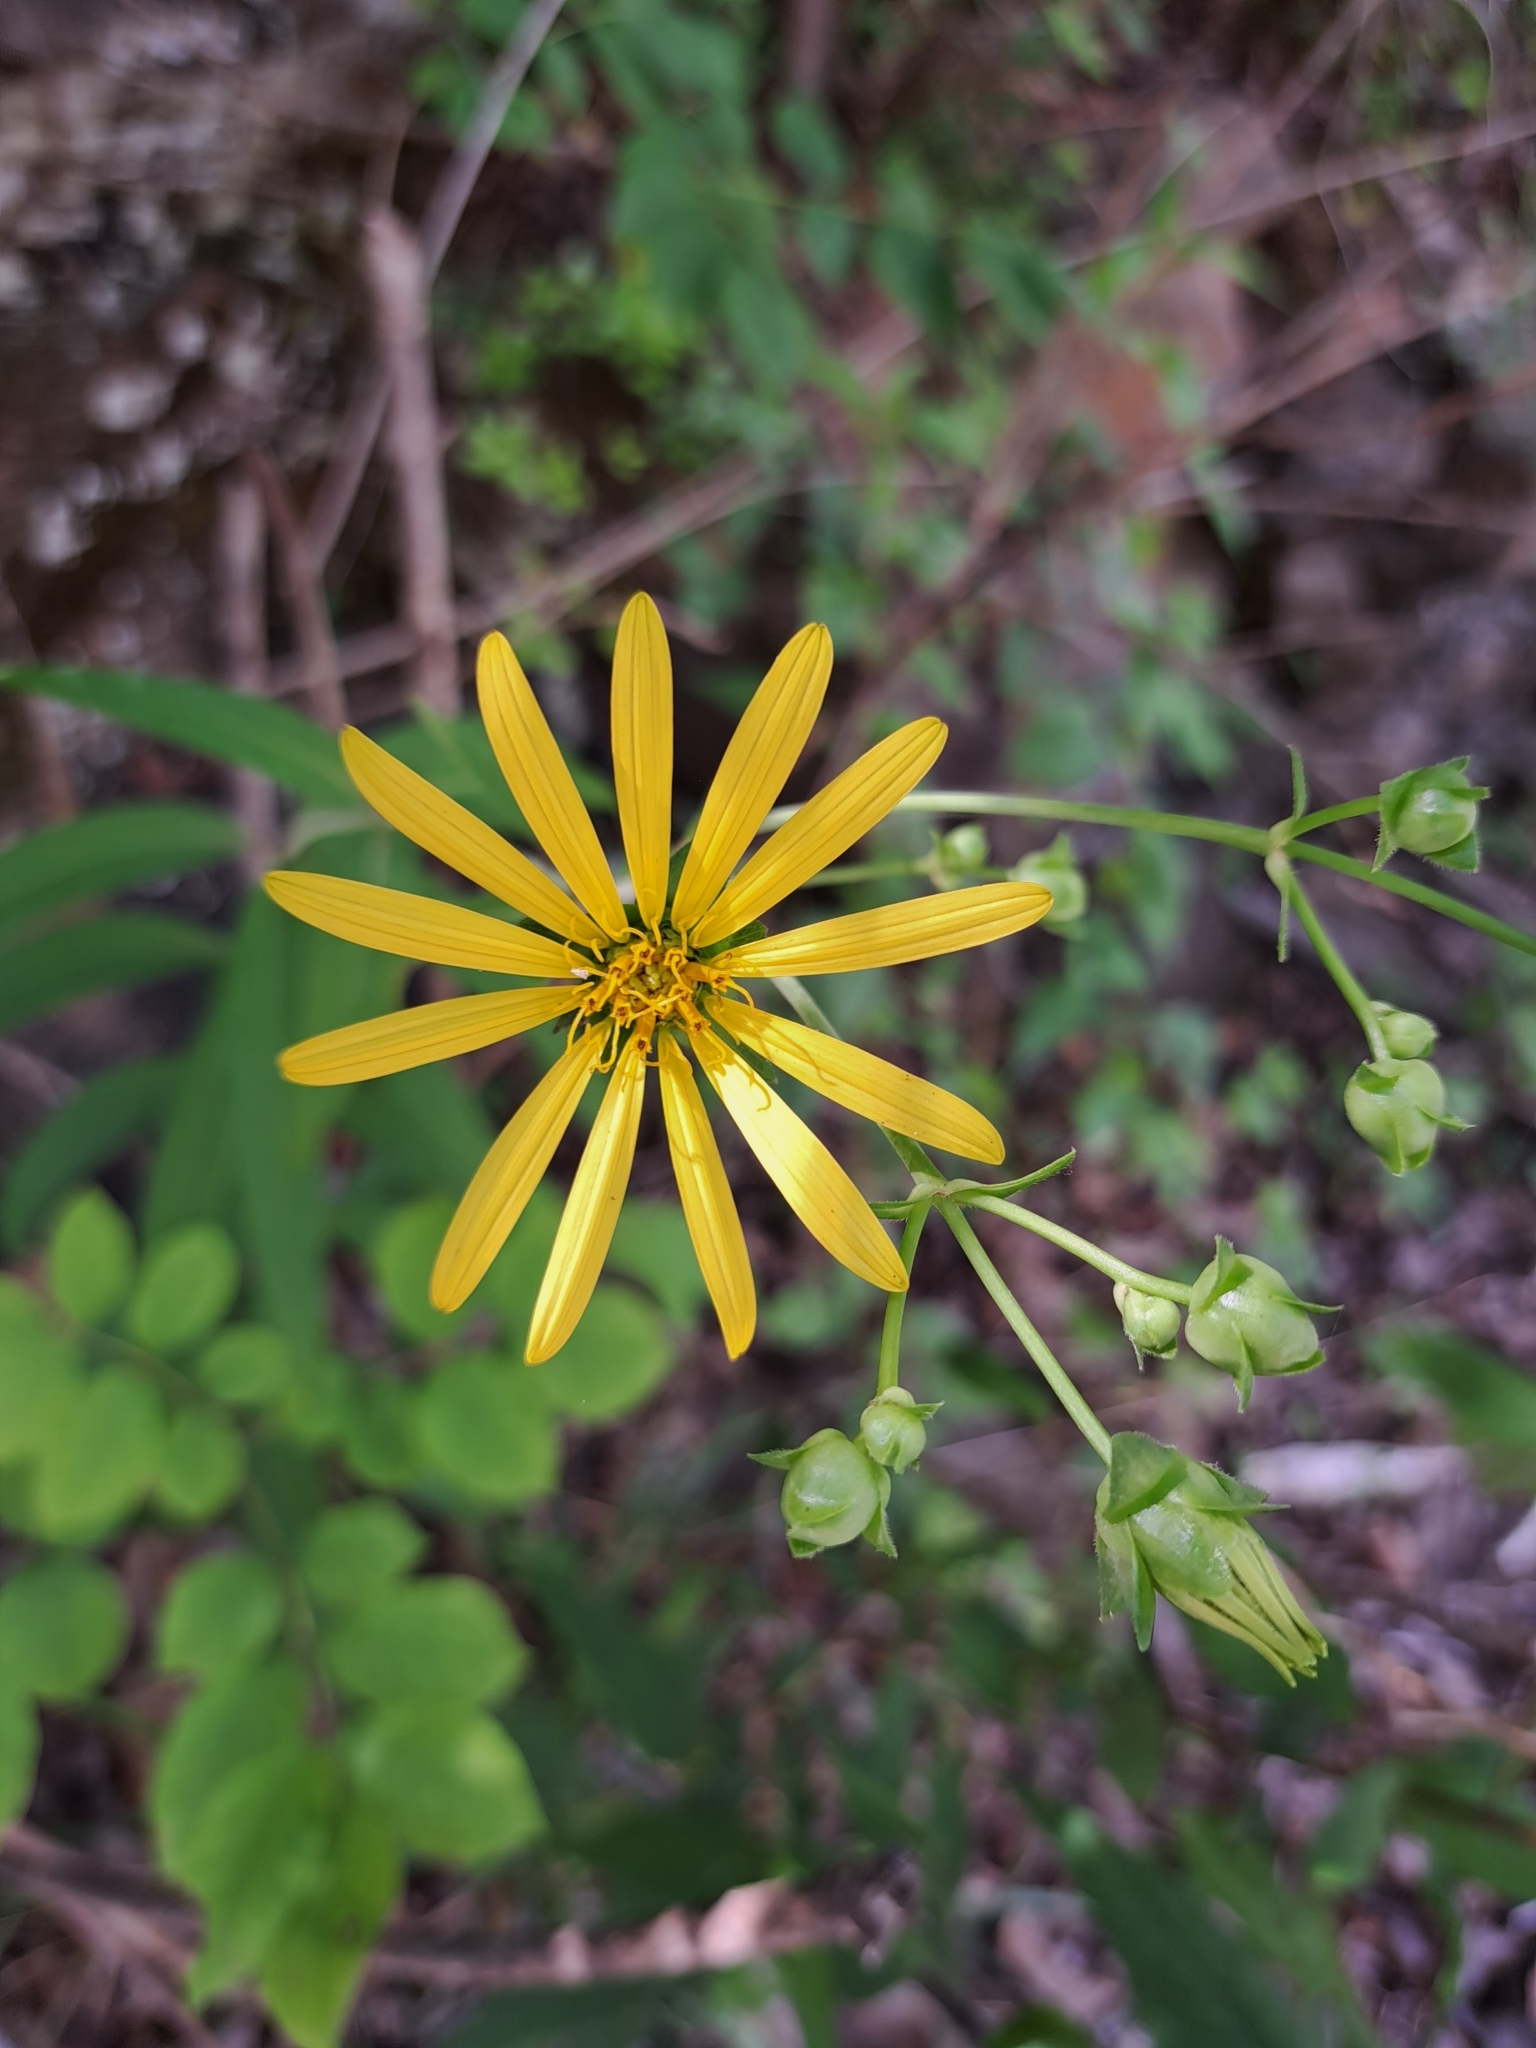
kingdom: Plantae
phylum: Tracheophyta
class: Magnoliopsida
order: Asterales
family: Asteraceae
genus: Silphium
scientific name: Silphium asteriscus
